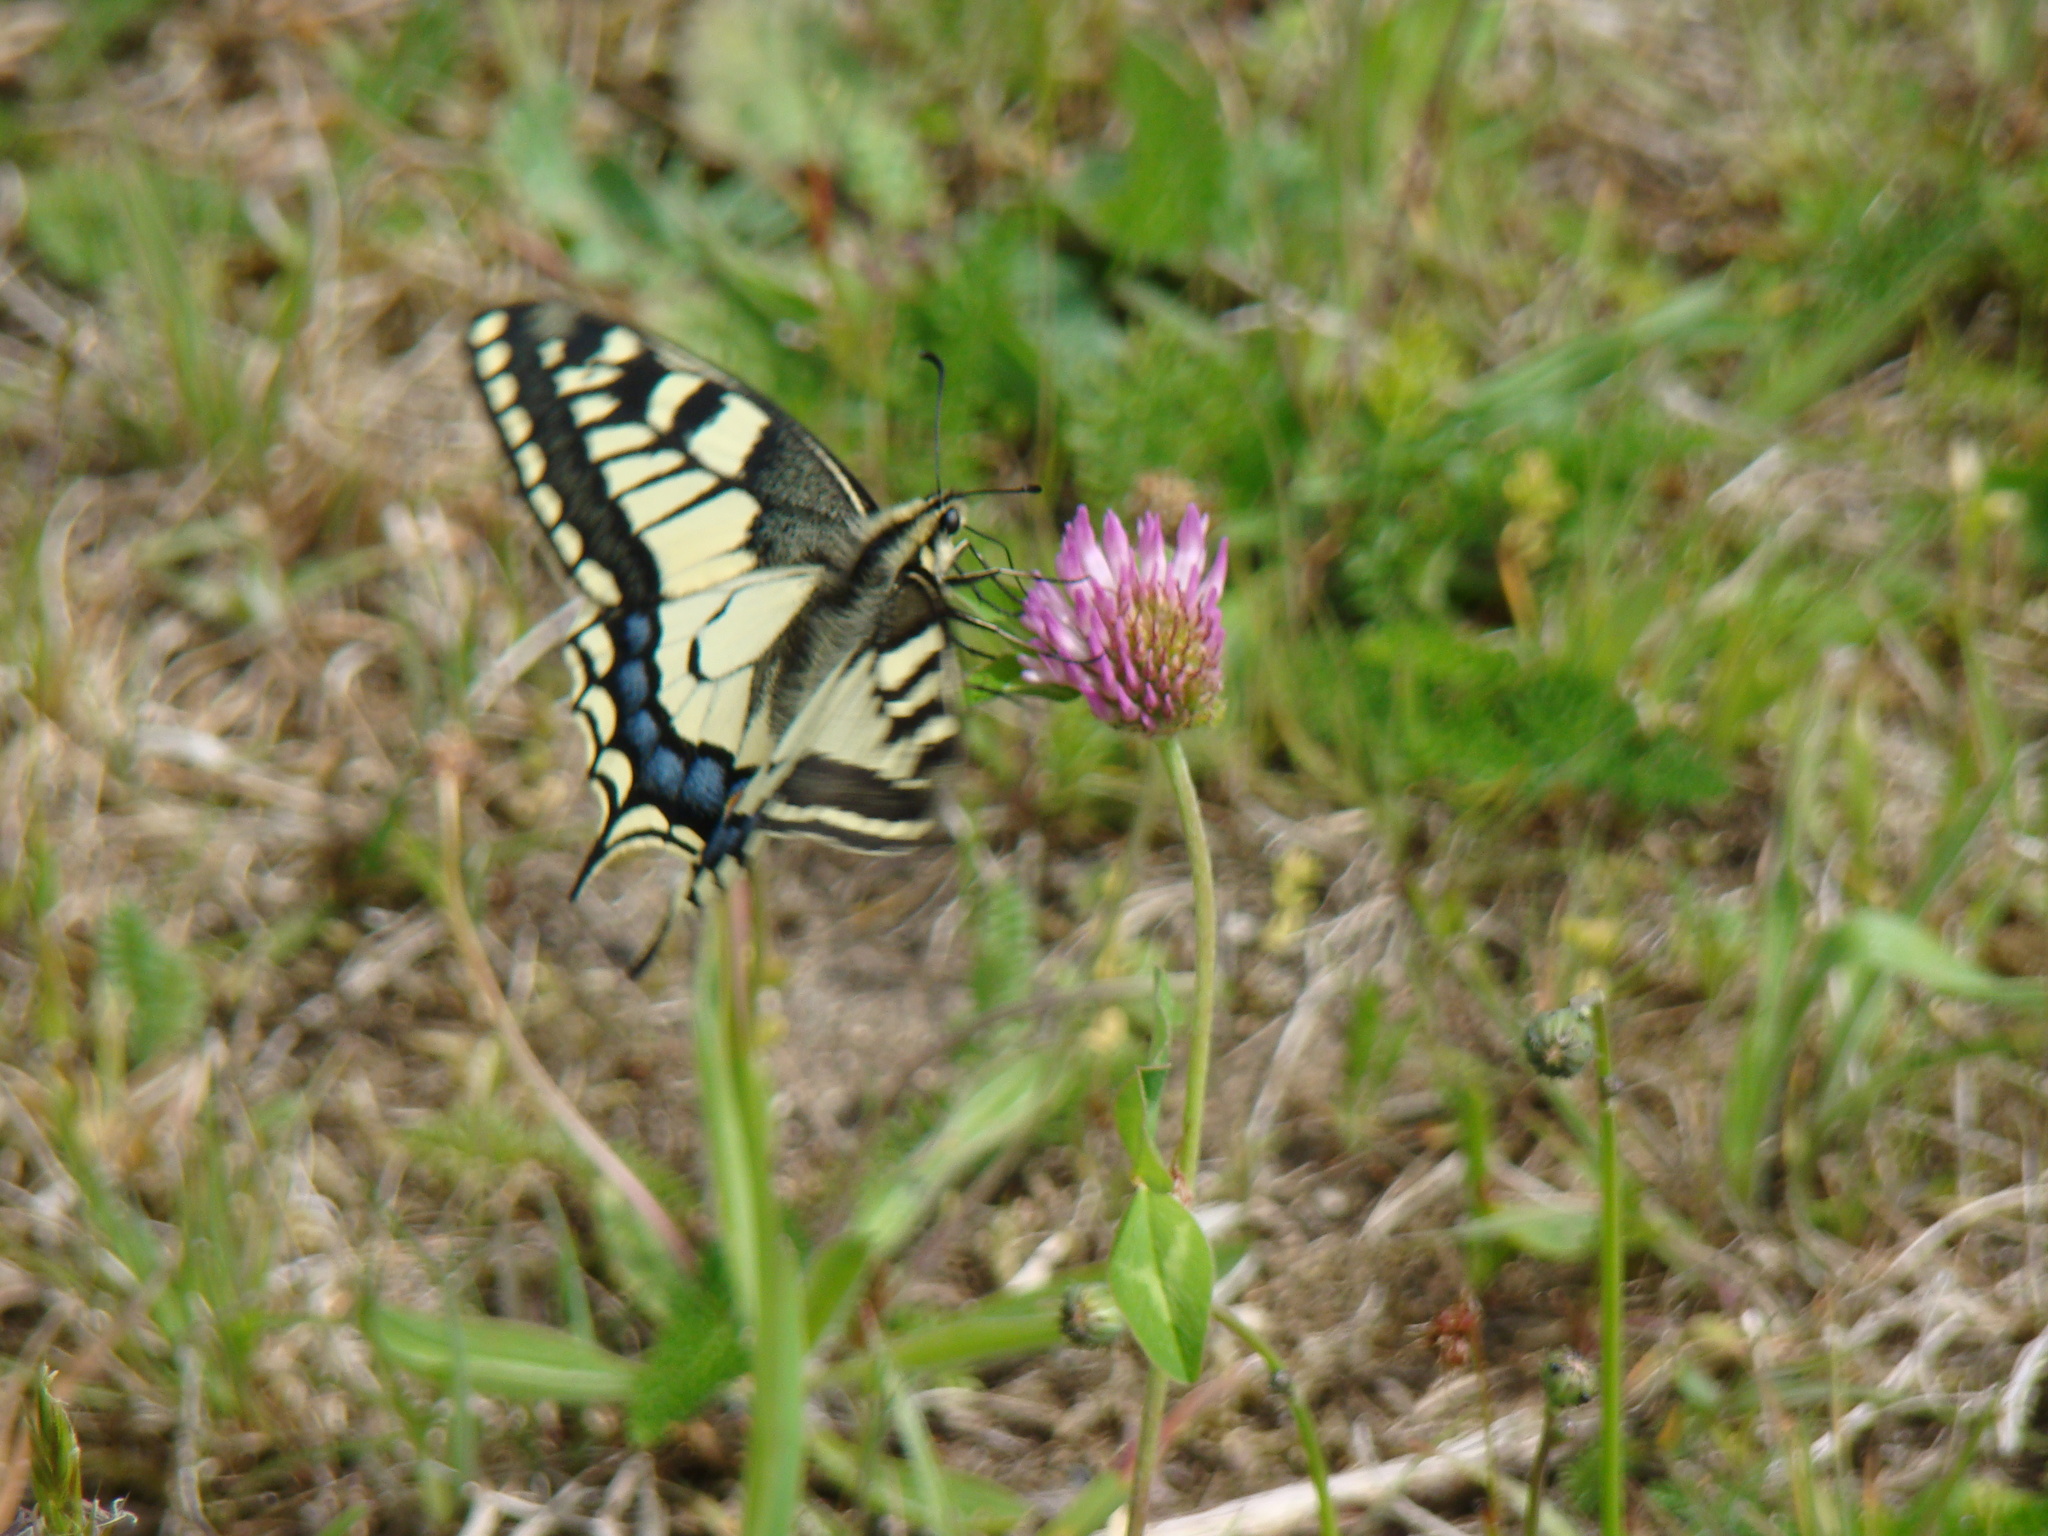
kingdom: Animalia
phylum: Arthropoda
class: Insecta
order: Lepidoptera
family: Papilionidae
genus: Papilio
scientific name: Papilio machaon
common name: Swallowtail
